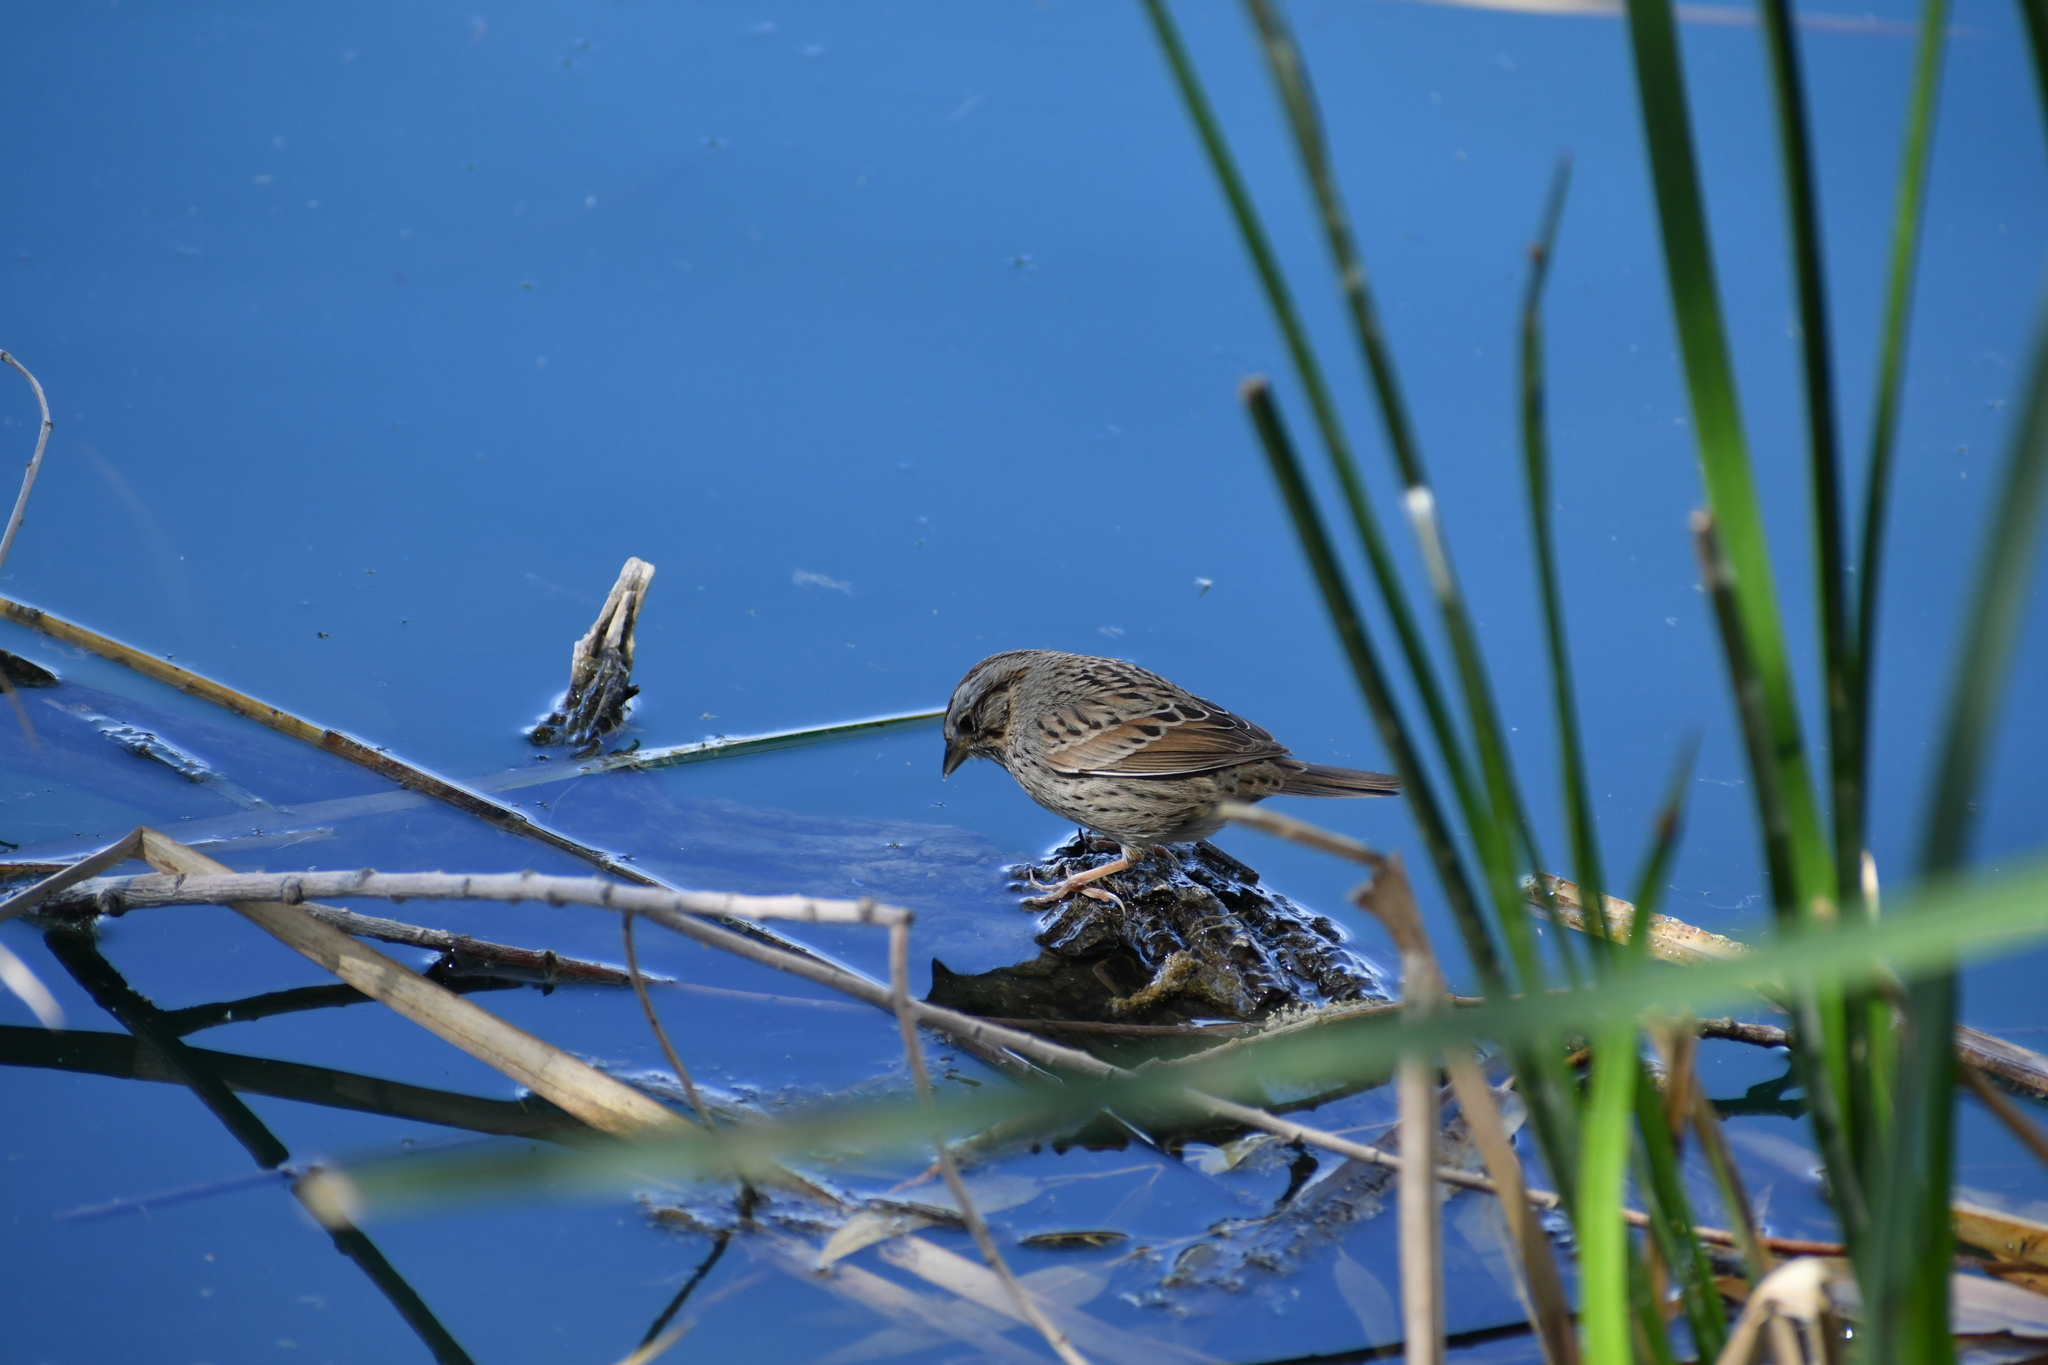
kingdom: Animalia
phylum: Chordata
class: Aves
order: Passeriformes
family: Passerellidae
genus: Melospiza
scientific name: Melospiza lincolnii
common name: Lincoln's sparrow
